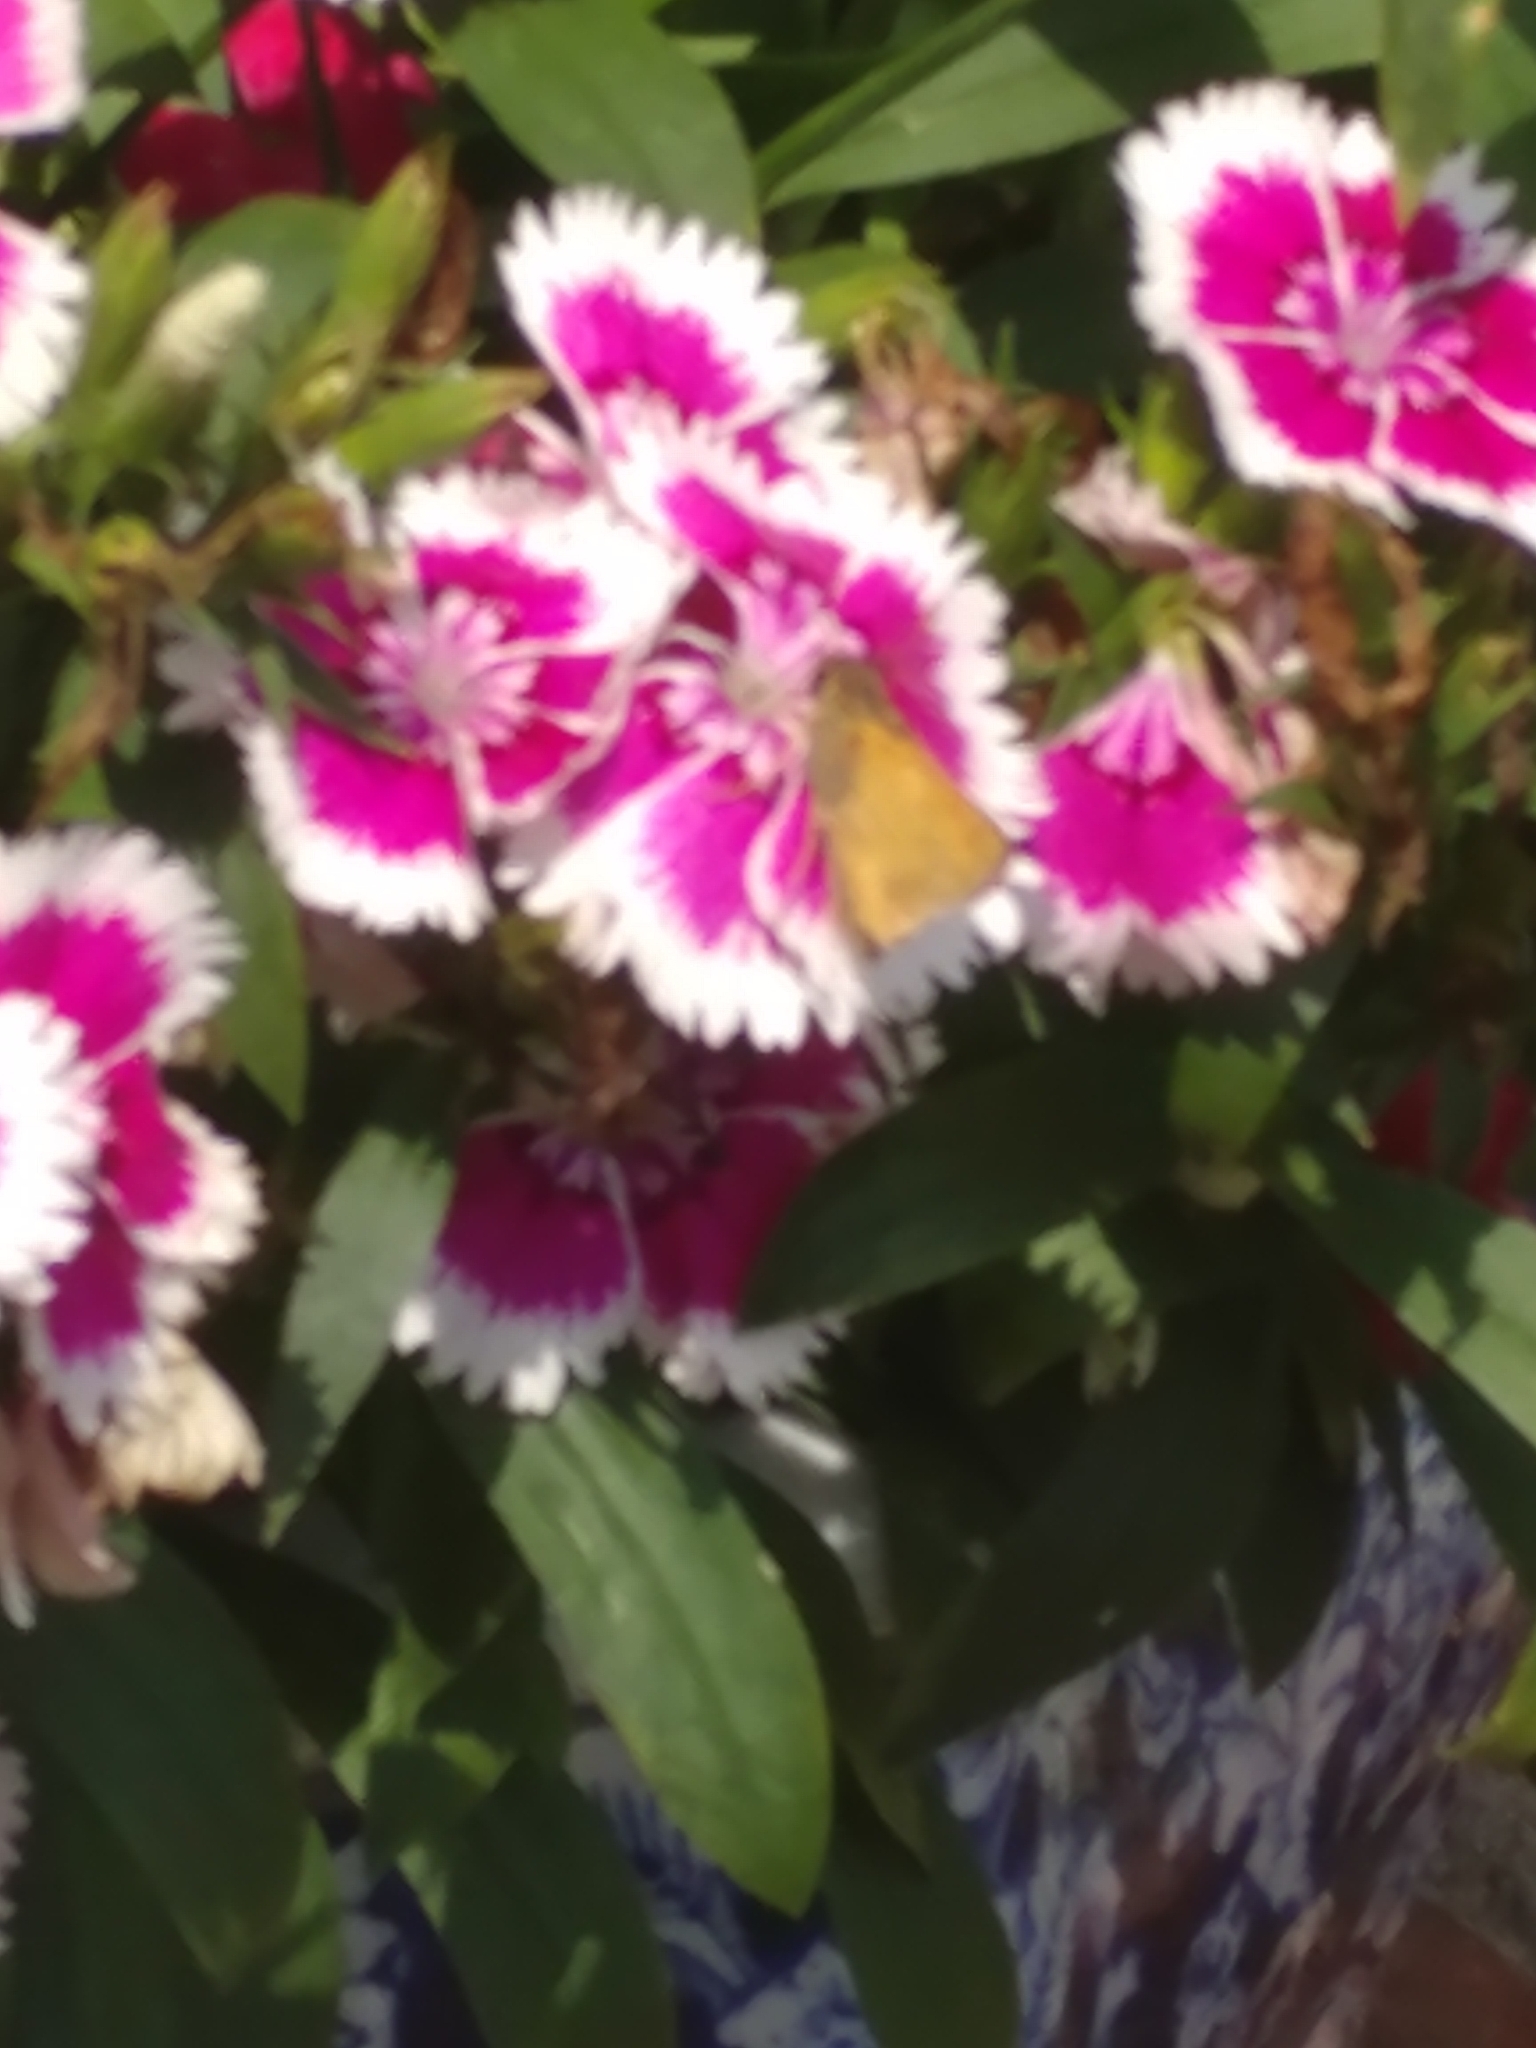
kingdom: Animalia
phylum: Arthropoda
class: Insecta
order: Lepidoptera
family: Hesperiidae
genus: Atalopedes
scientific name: Atalopedes
